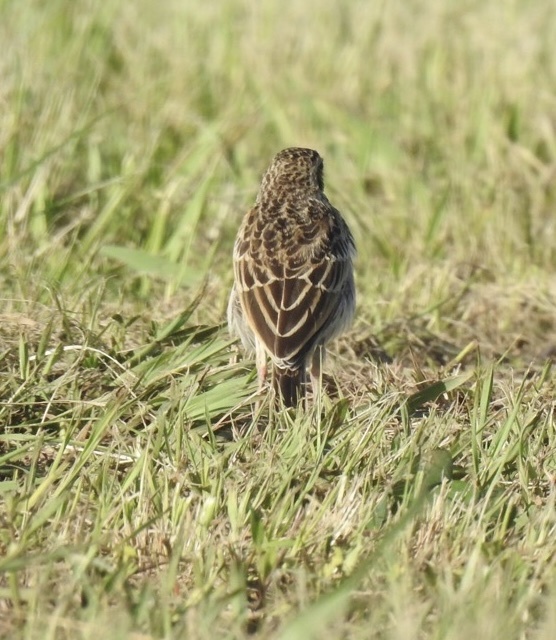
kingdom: Animalia
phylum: Chordata
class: Aves
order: Passeriformes
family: Motacillidae
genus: Anthus
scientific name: Anthus cinnamomeus
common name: African pipit
